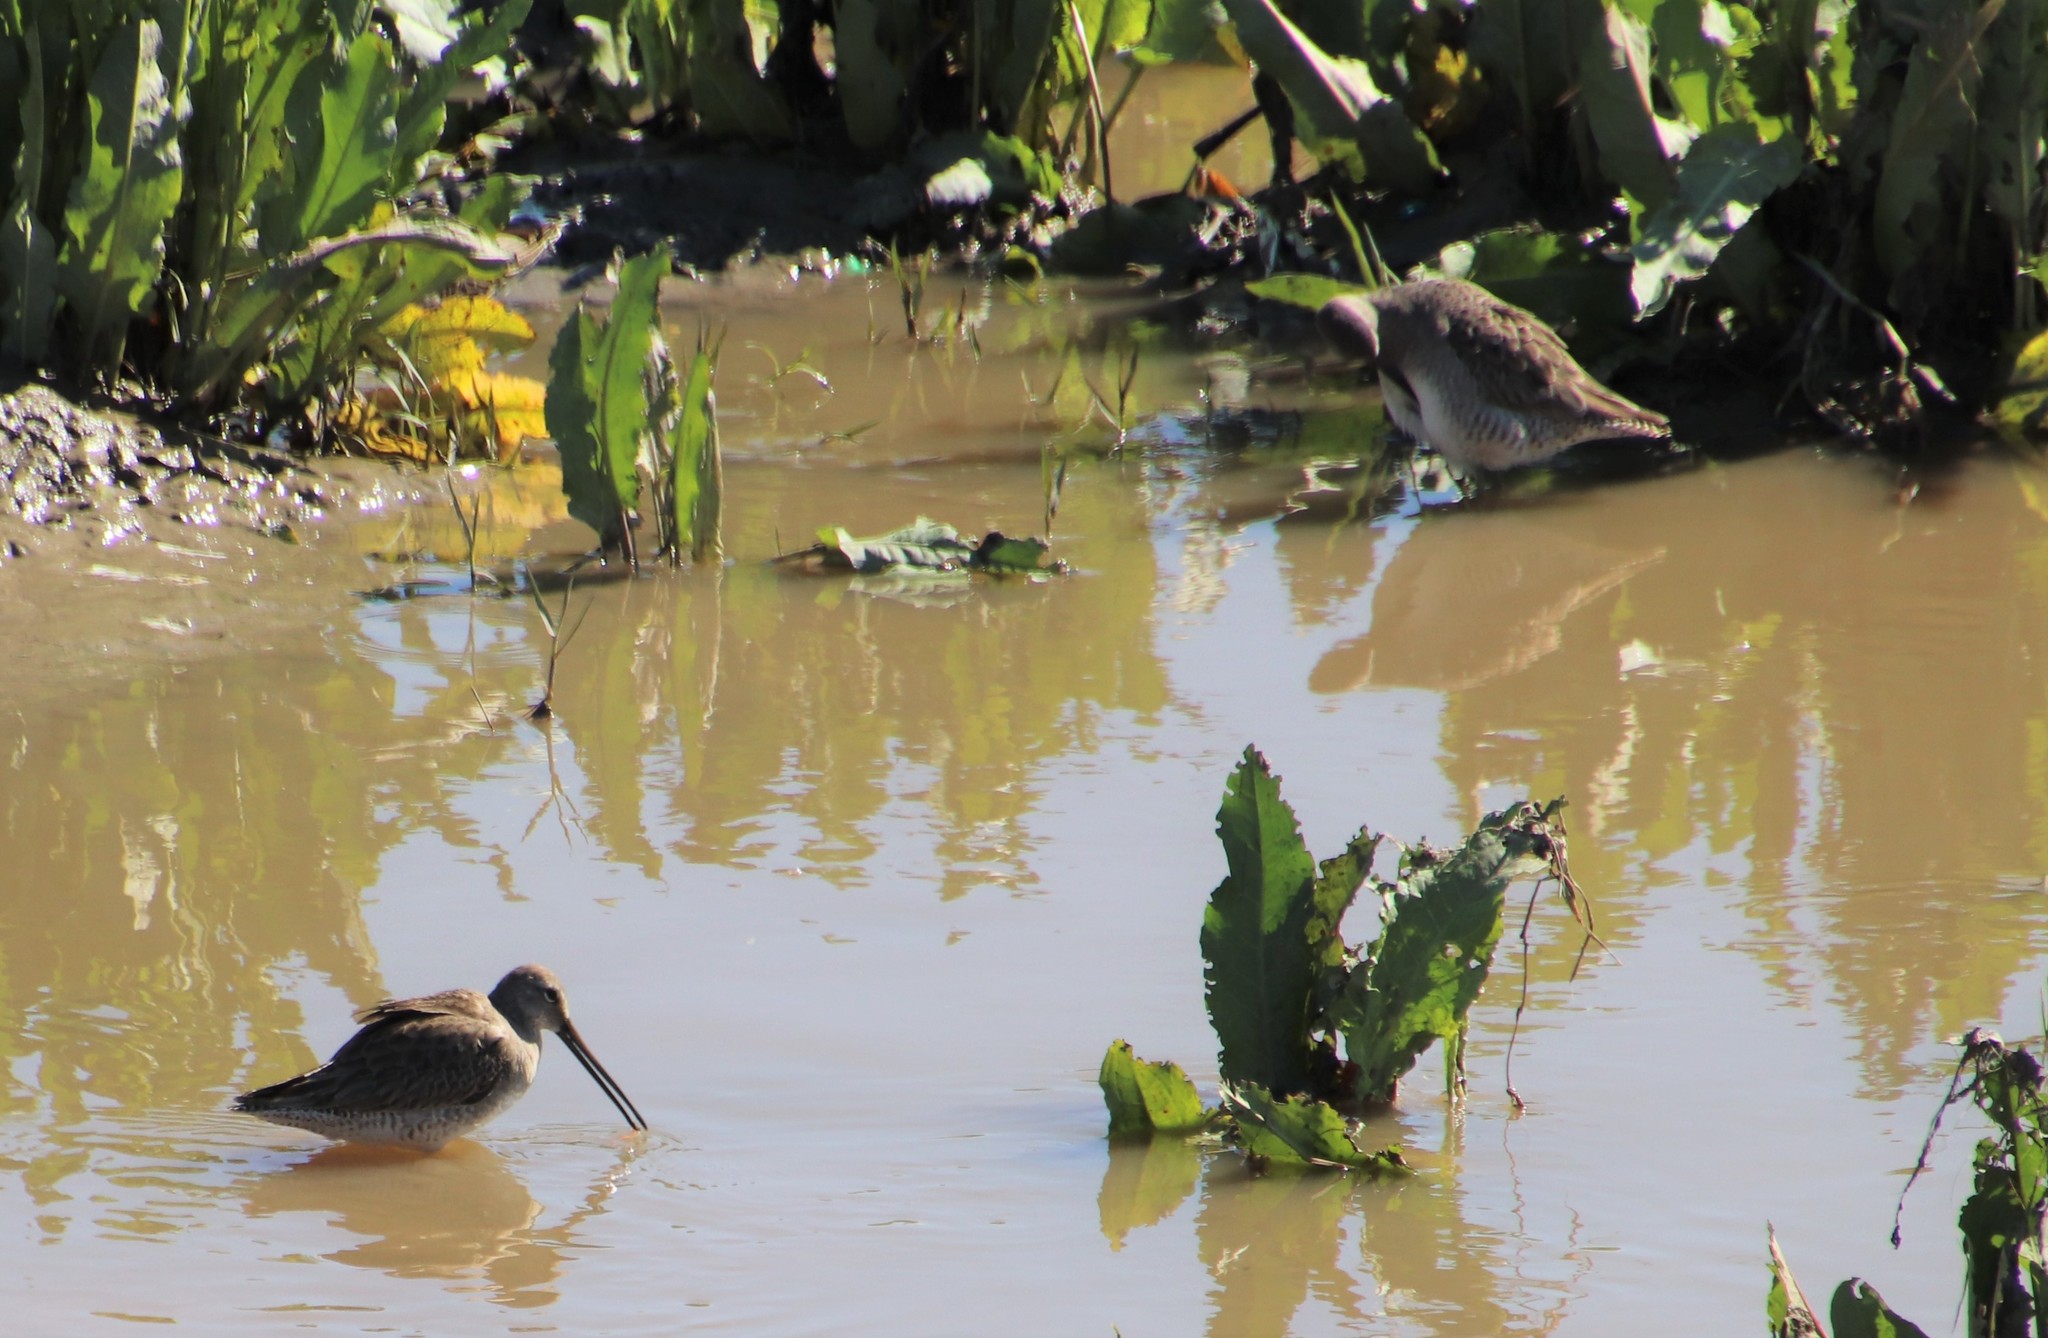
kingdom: Animalia
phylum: Chordata
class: Aves
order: Charadriiformes
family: Scolopacidae
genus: Limnodromus
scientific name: Limnodromus
